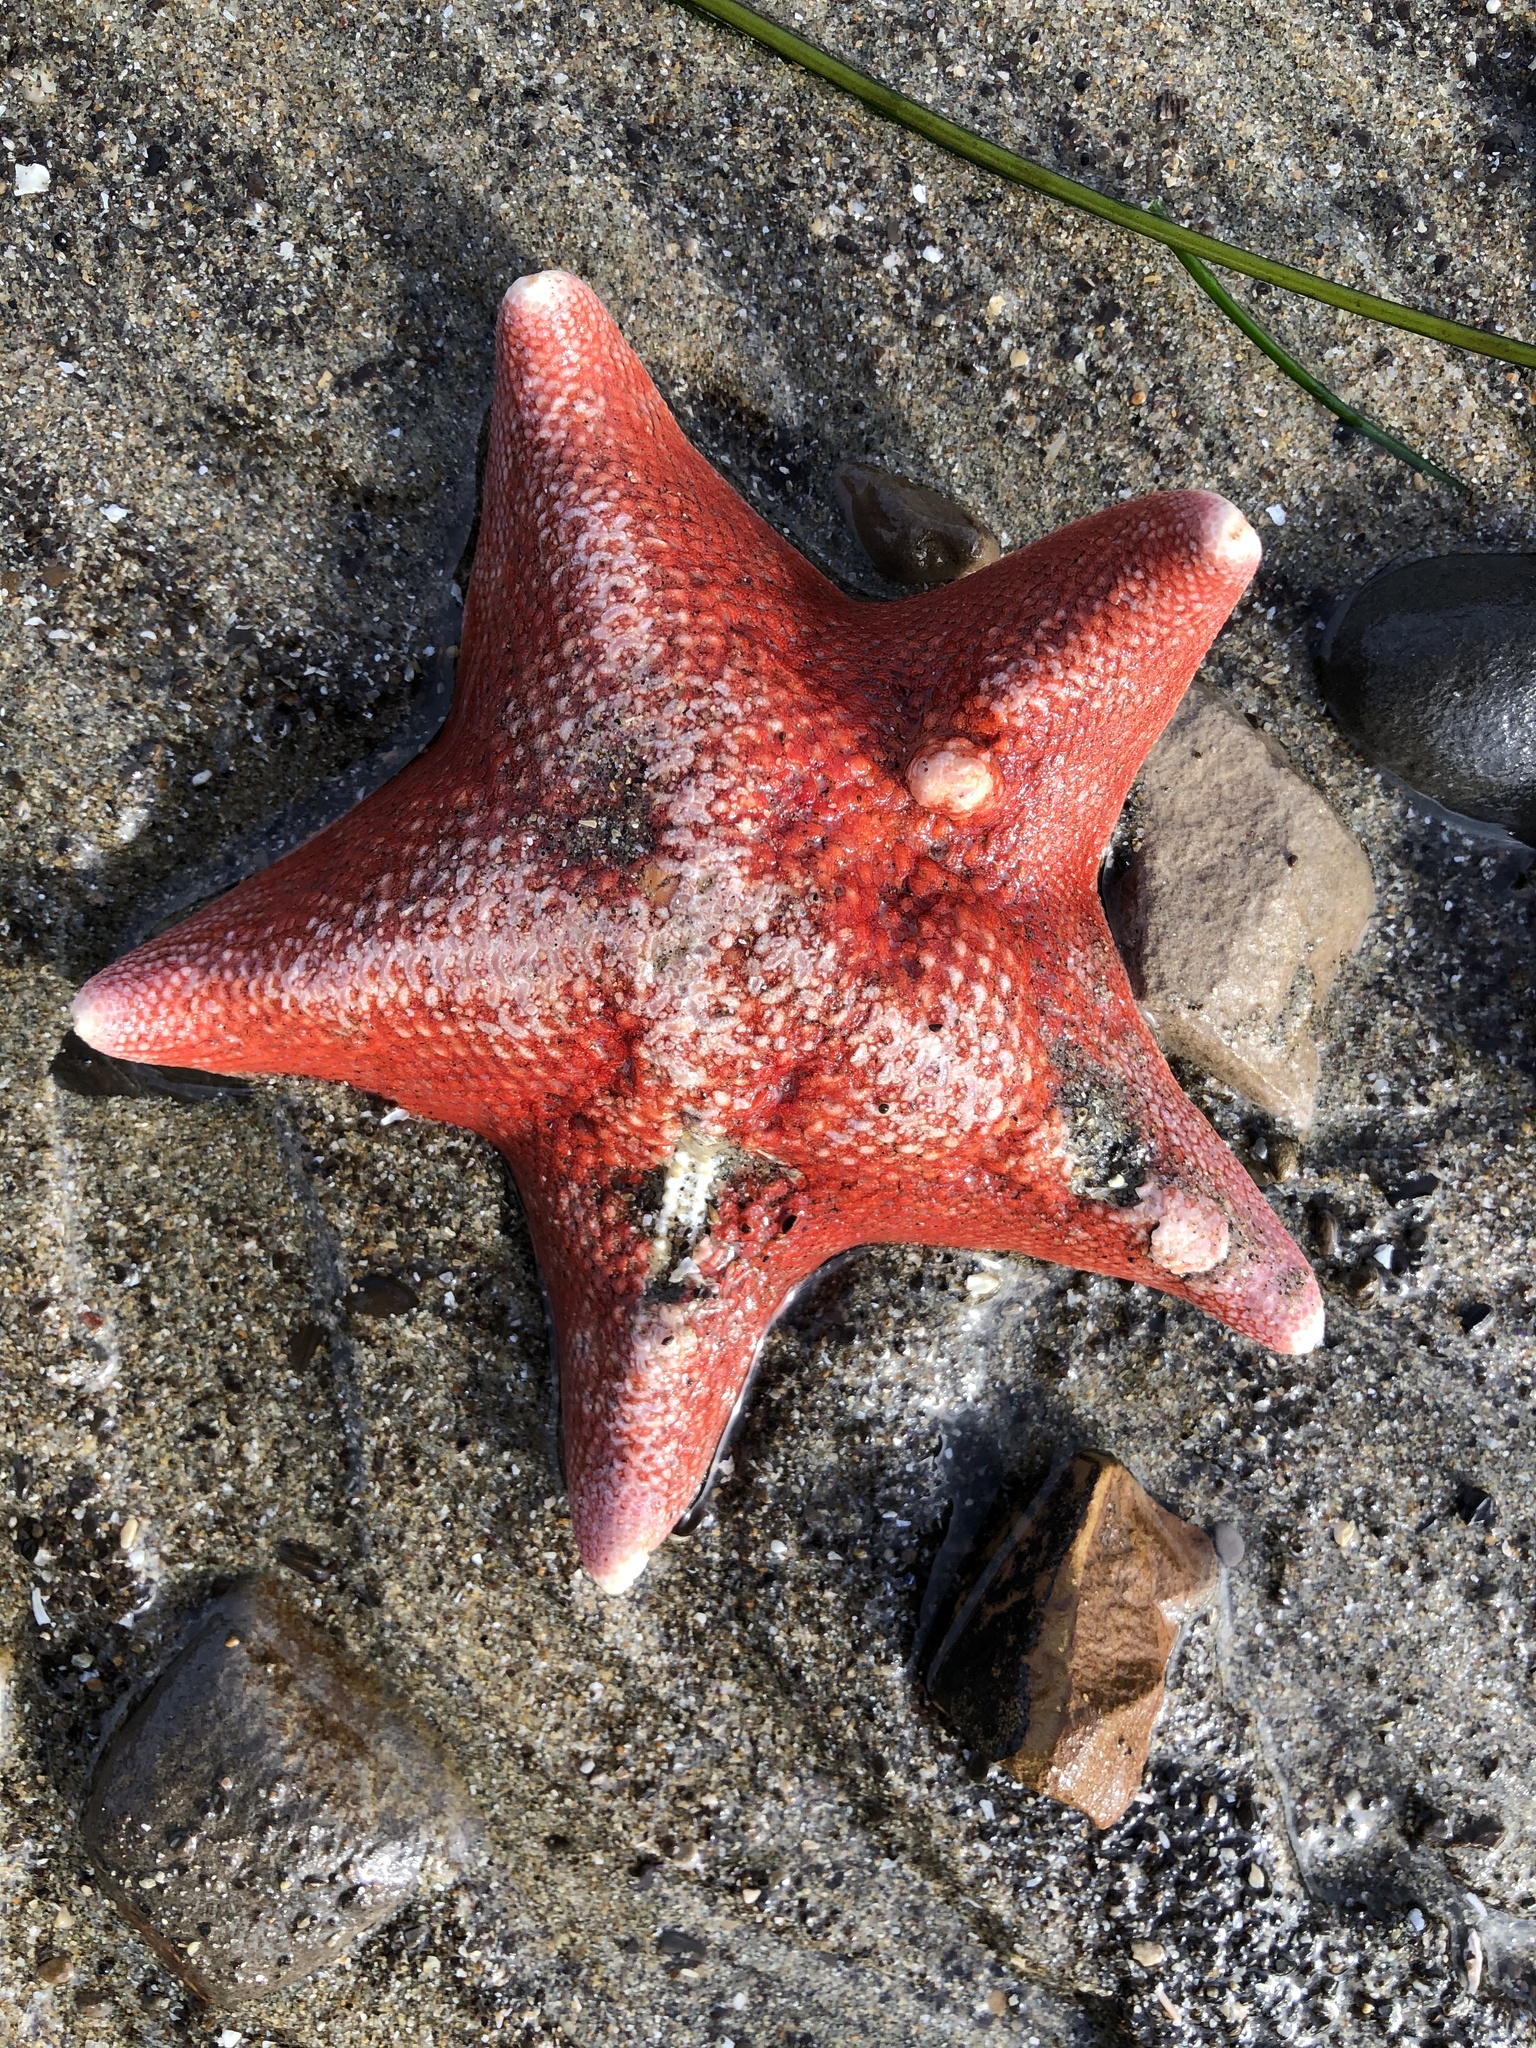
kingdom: Animalia
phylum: Echinodermata
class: Asteroidea
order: Valvatida
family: Asterinidae
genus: Patiria
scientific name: Patiria miniata
